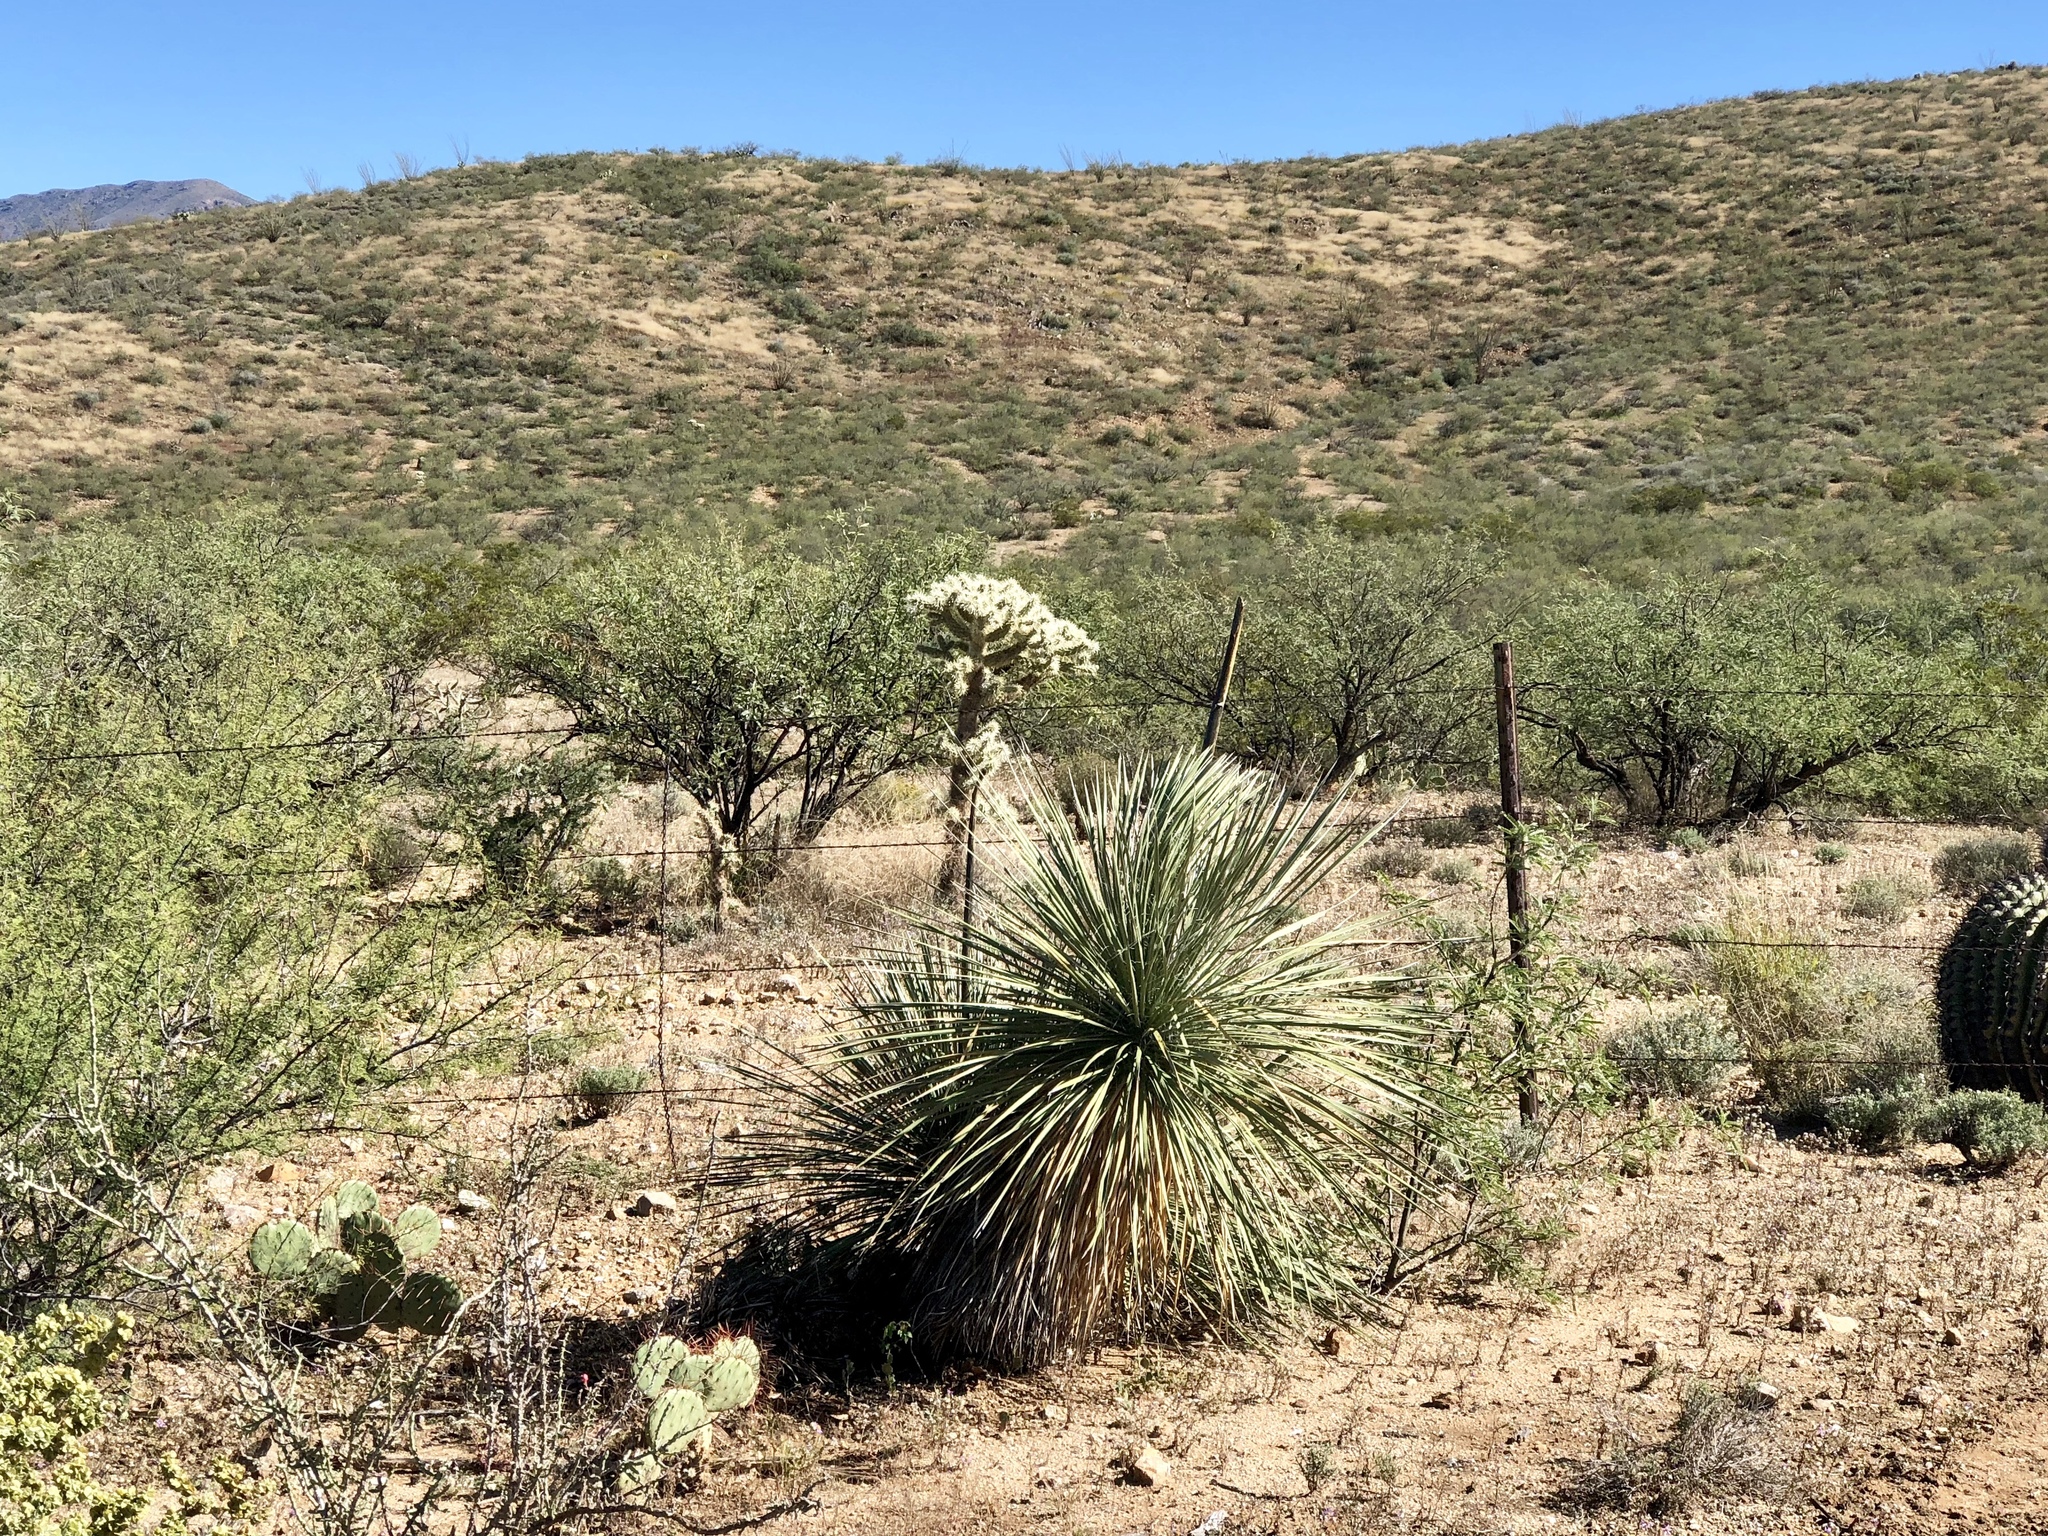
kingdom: Plantae
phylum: Tracheophyta
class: Liliopsida
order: Asparagales
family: Asparagaceae
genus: Yucca
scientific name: Yucca elata
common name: Palmella
